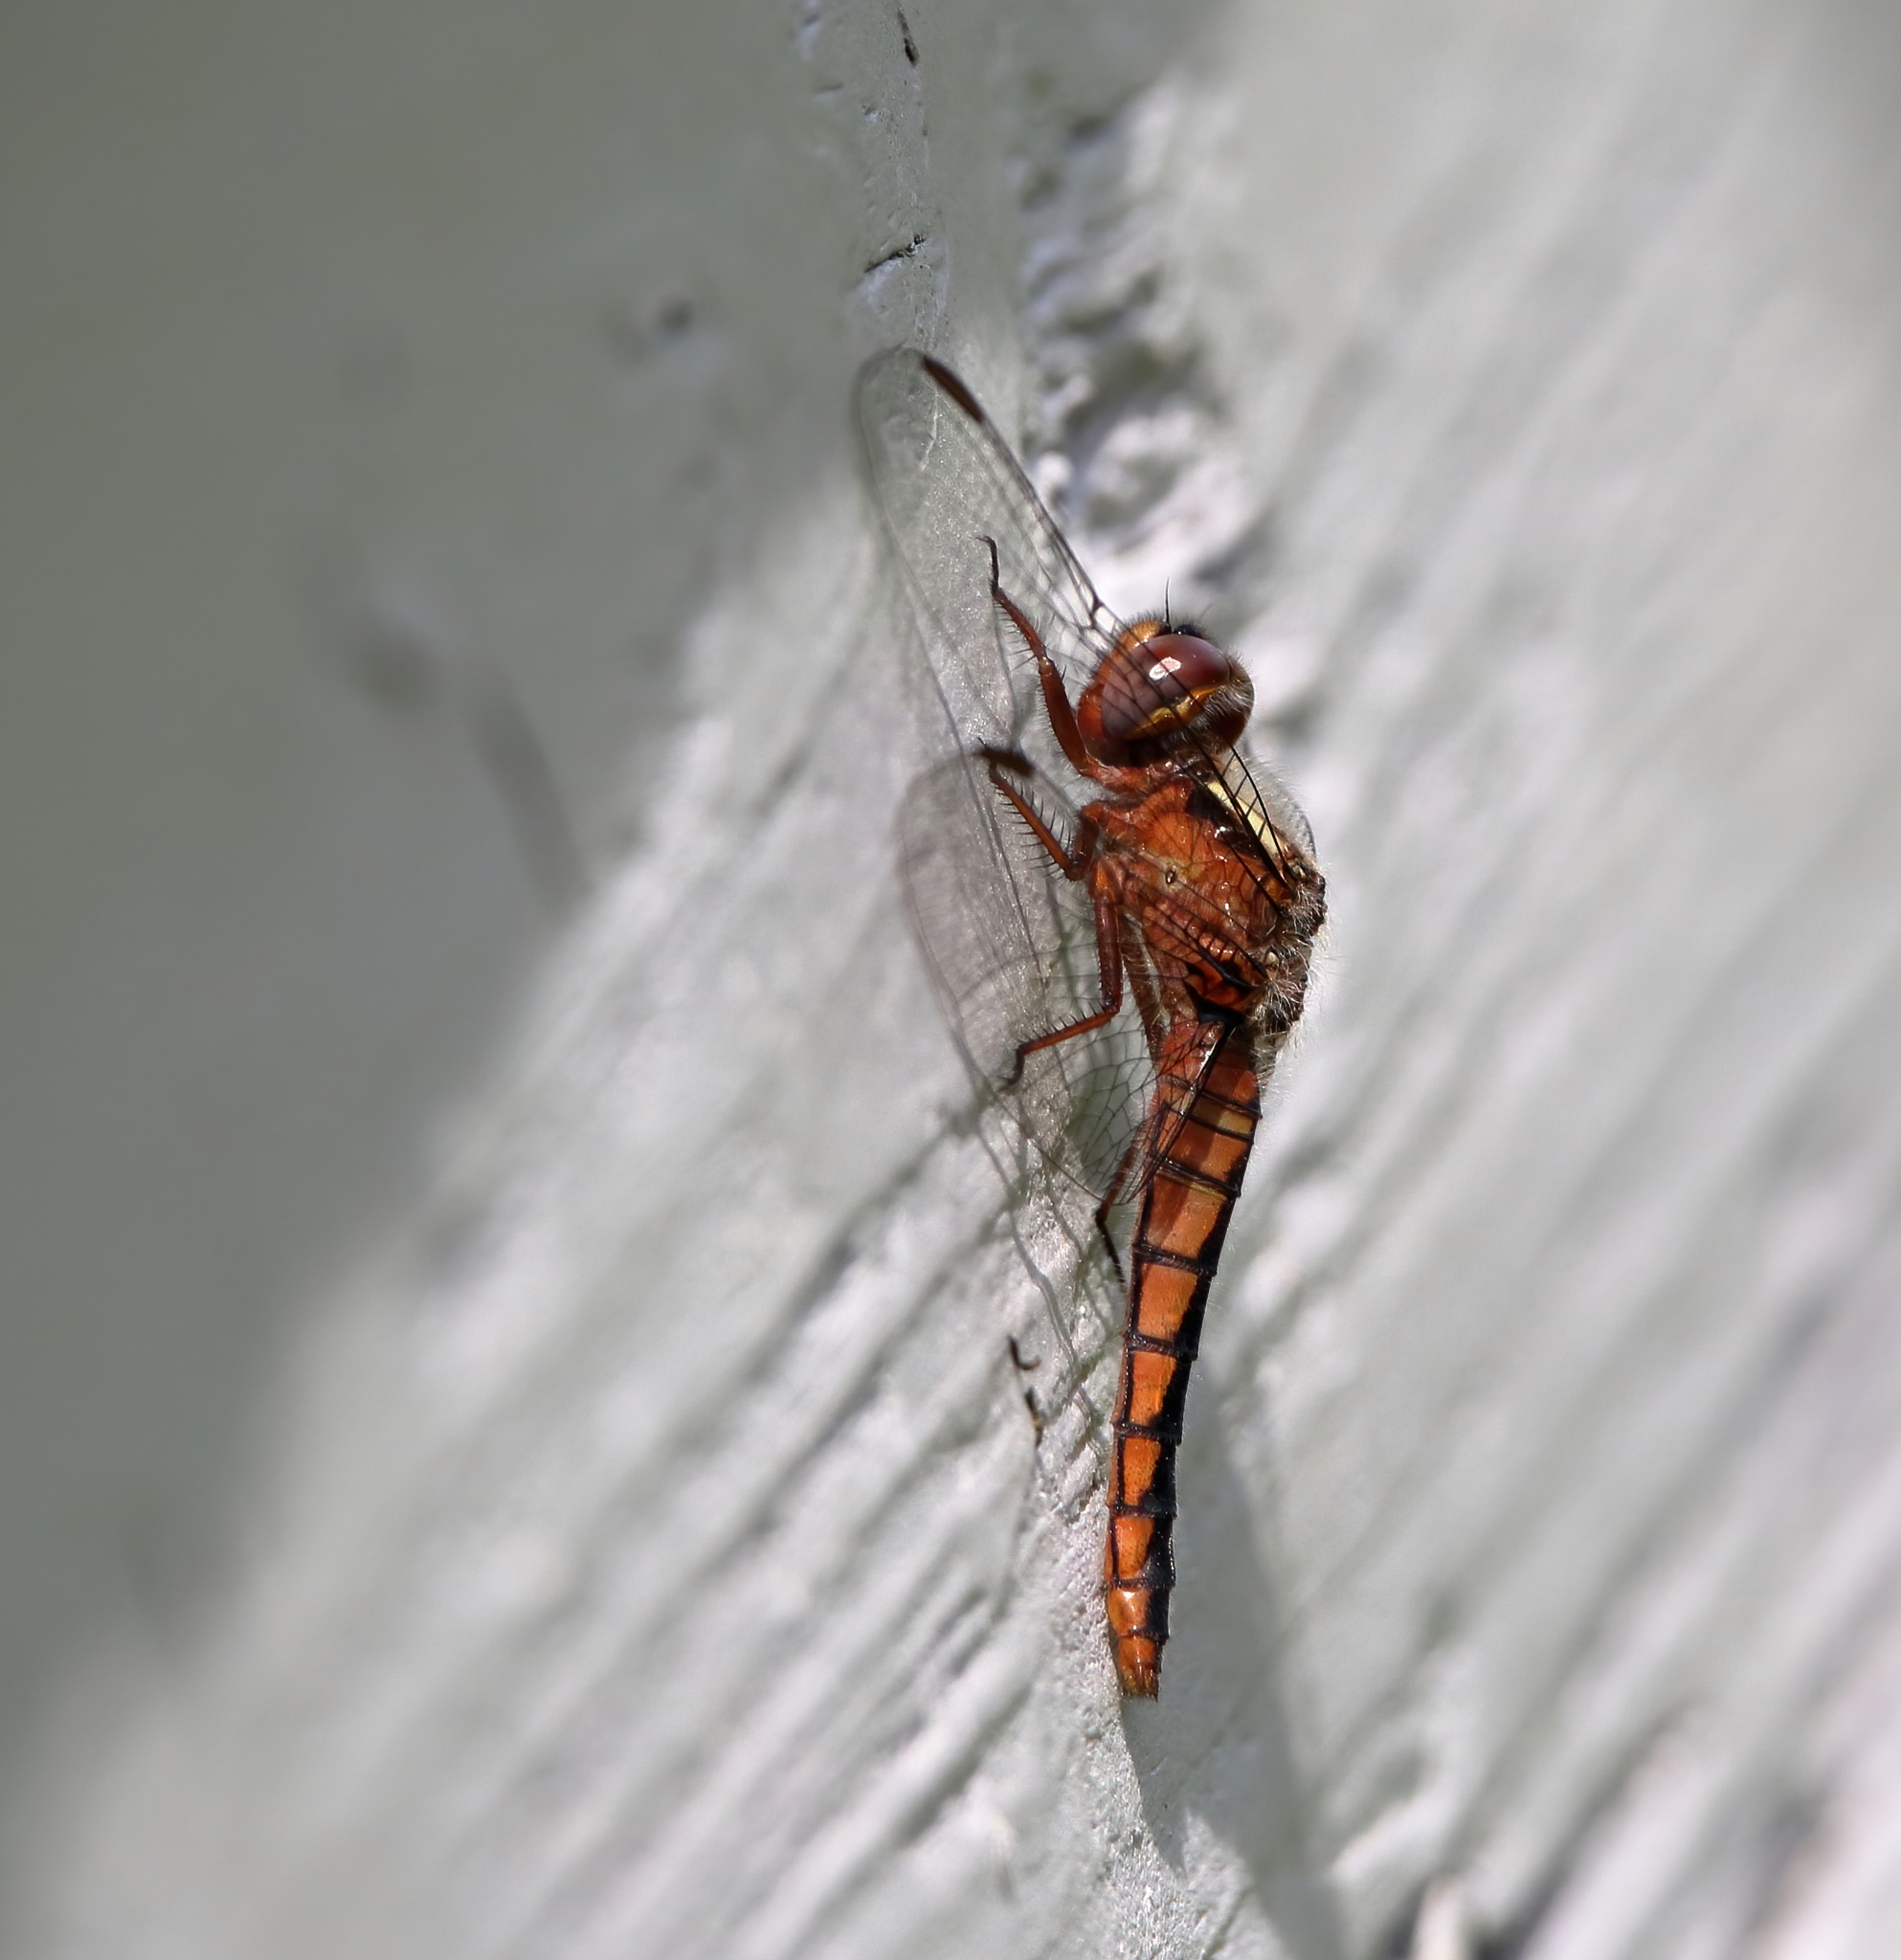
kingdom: Animalia
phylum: Arthropoda
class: Insecta
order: Odonata
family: Libellulidae
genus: Ladona
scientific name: Ladona deplanata
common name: Blue corporal
